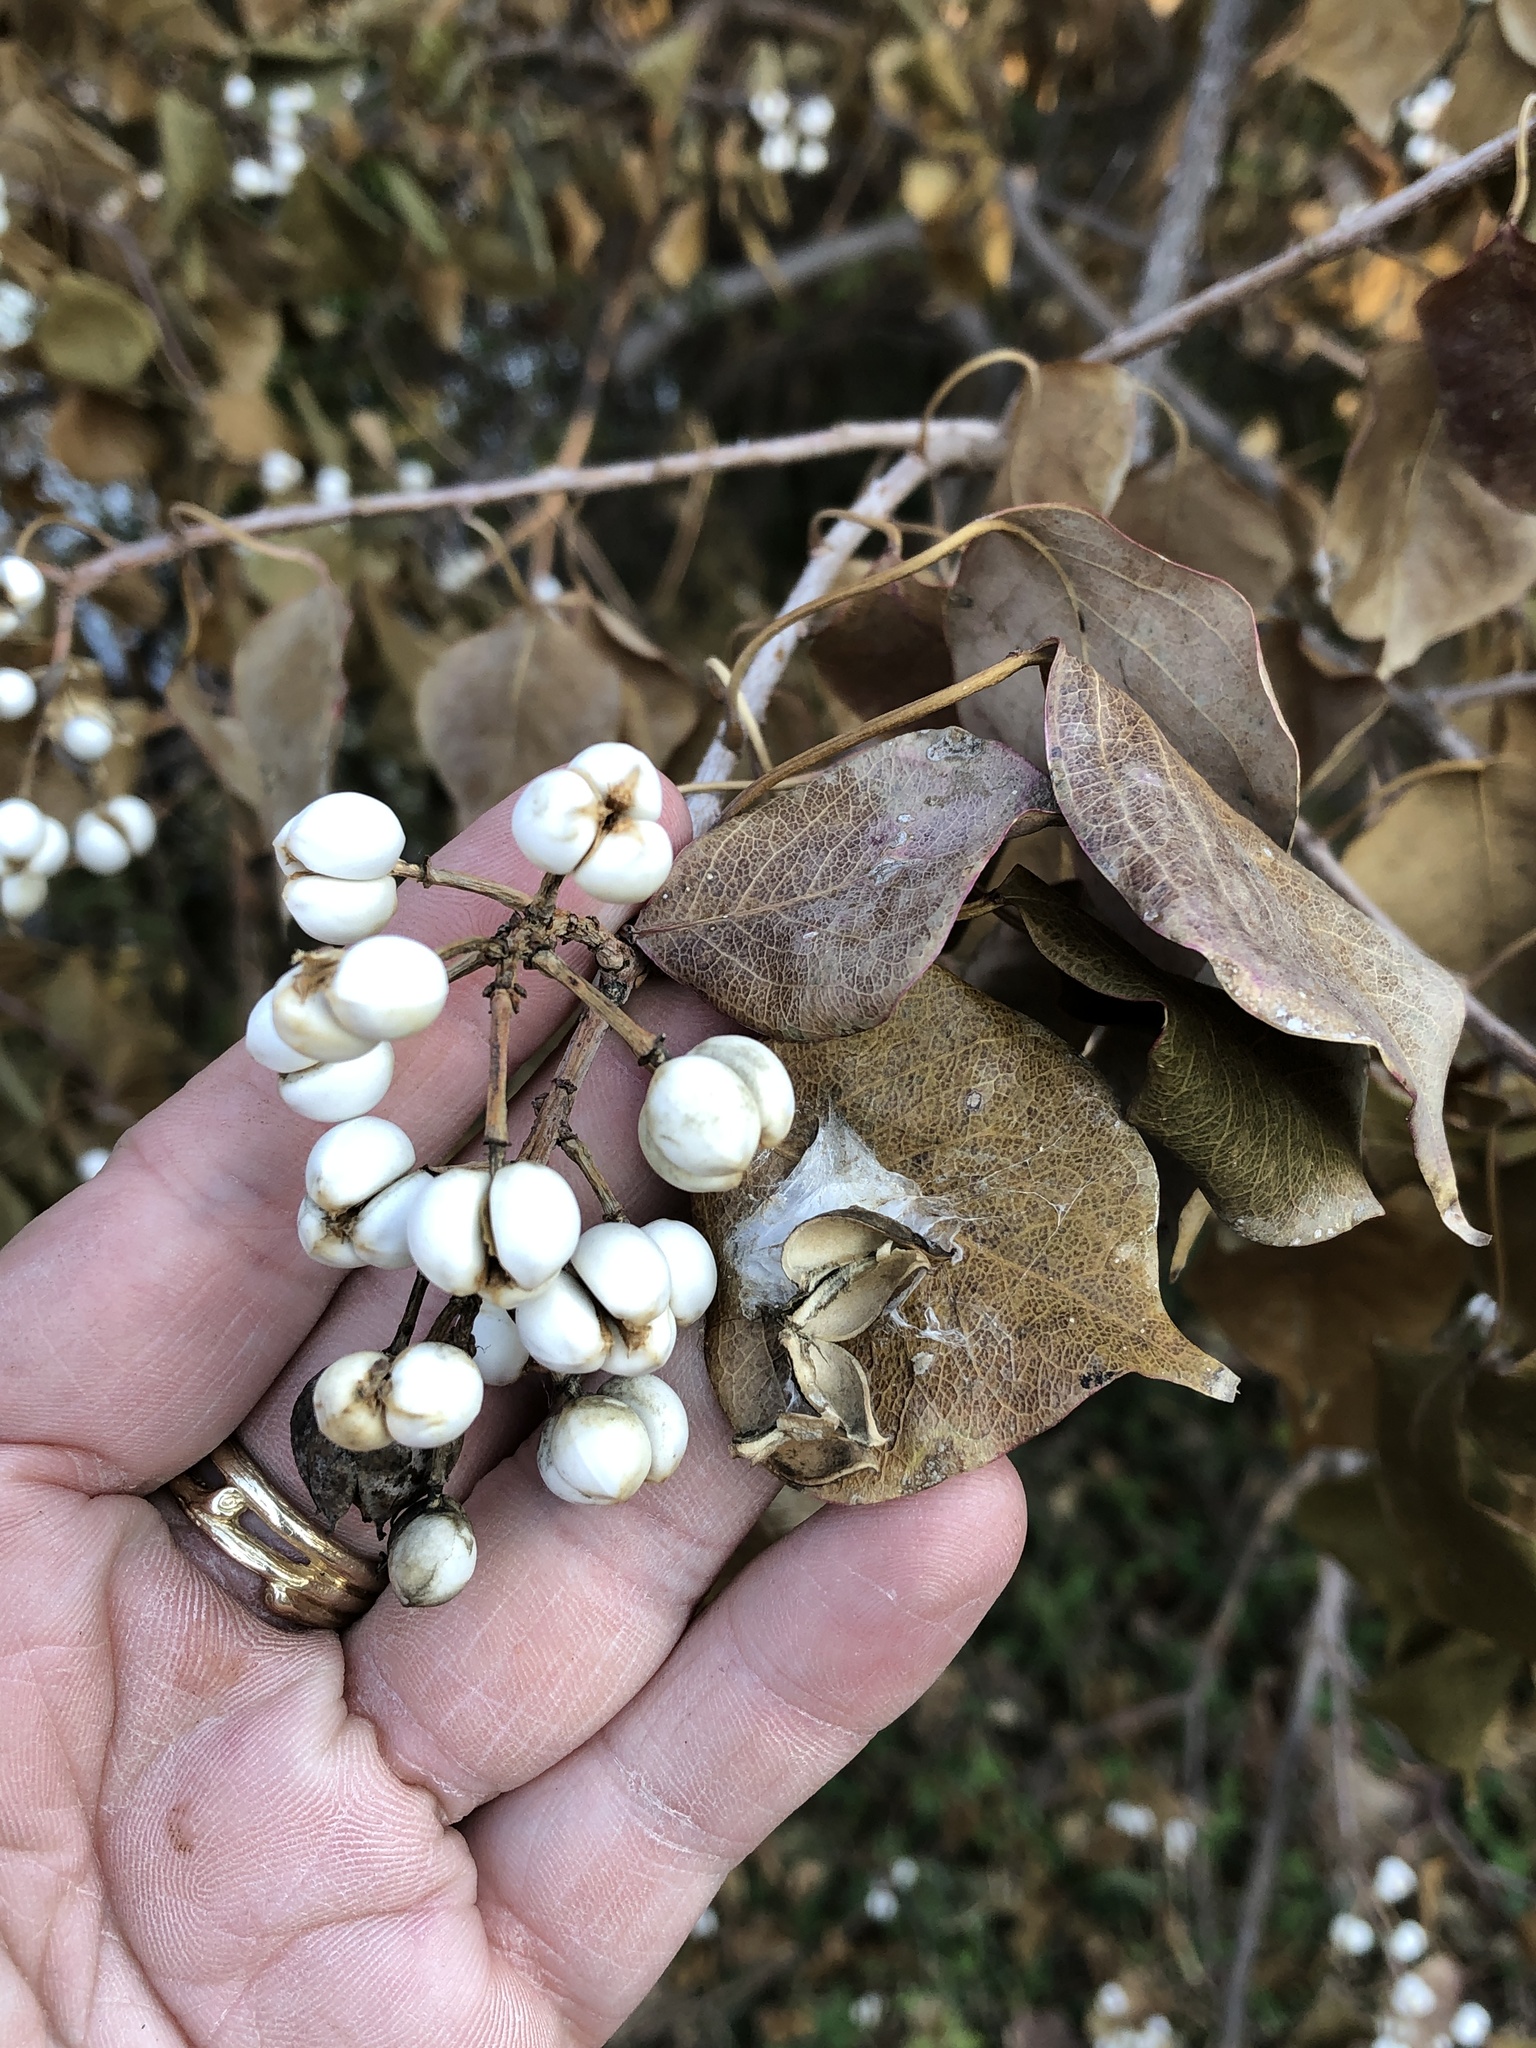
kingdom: Plantae
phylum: Tracheophyta
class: Magnoliopsida
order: Malpighiales
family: Euphorbiaceae
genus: Triadica
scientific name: Triadica sebifera
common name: Chinese tallow
